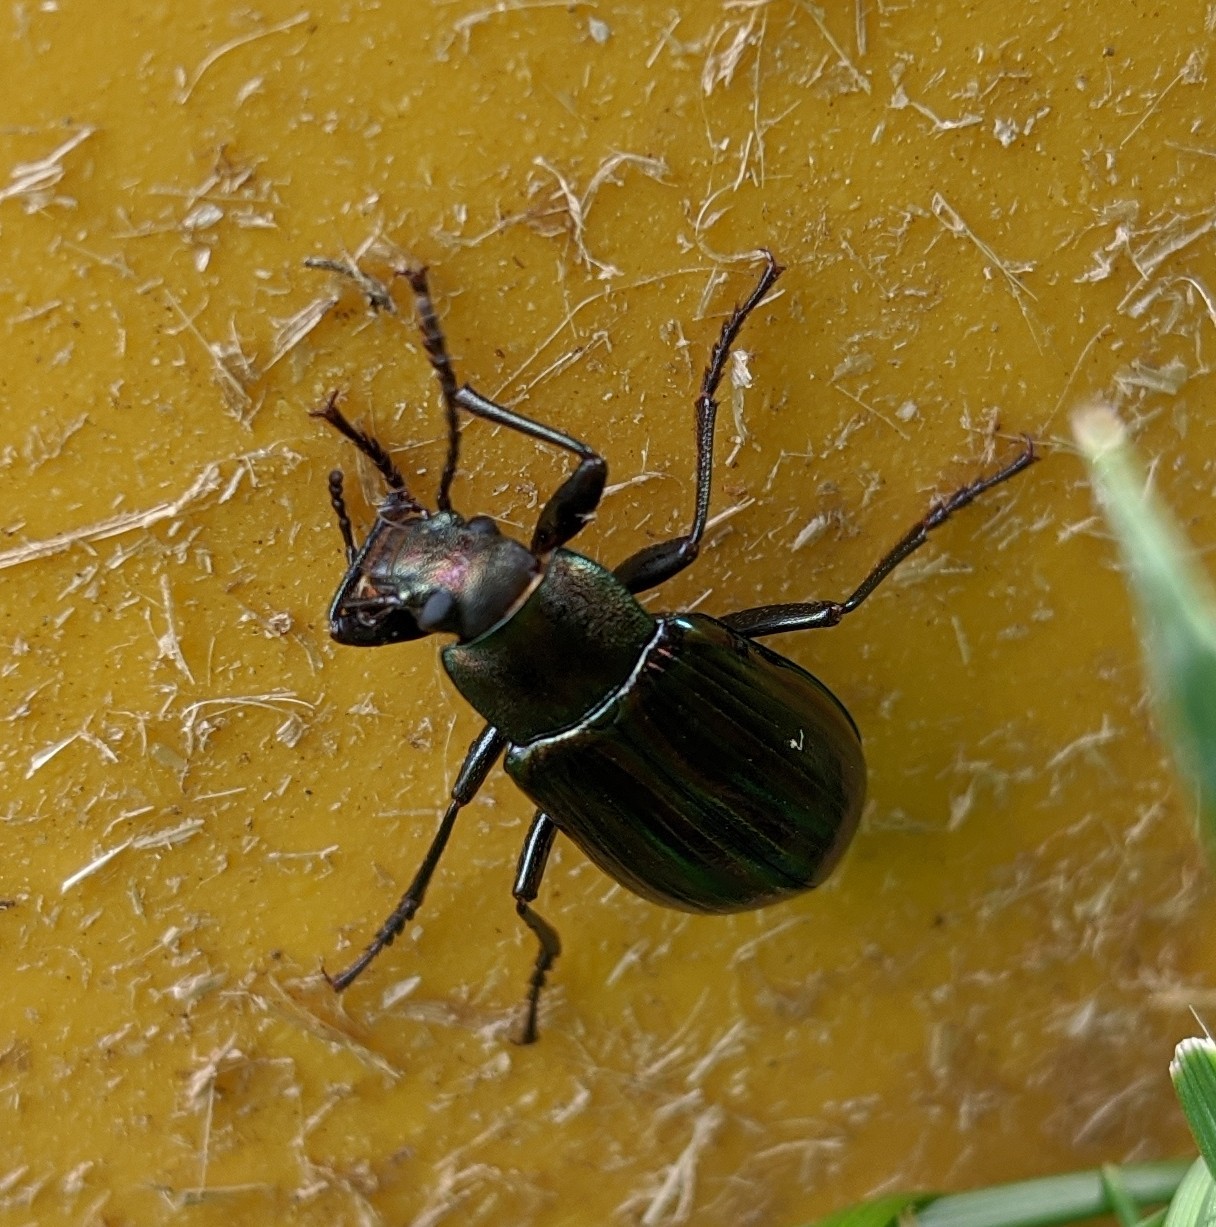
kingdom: Animalia
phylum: Arthropoda
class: Insecta
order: Coleoptera
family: Tenebrionidae
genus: Tarpela
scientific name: Tarpela micans
